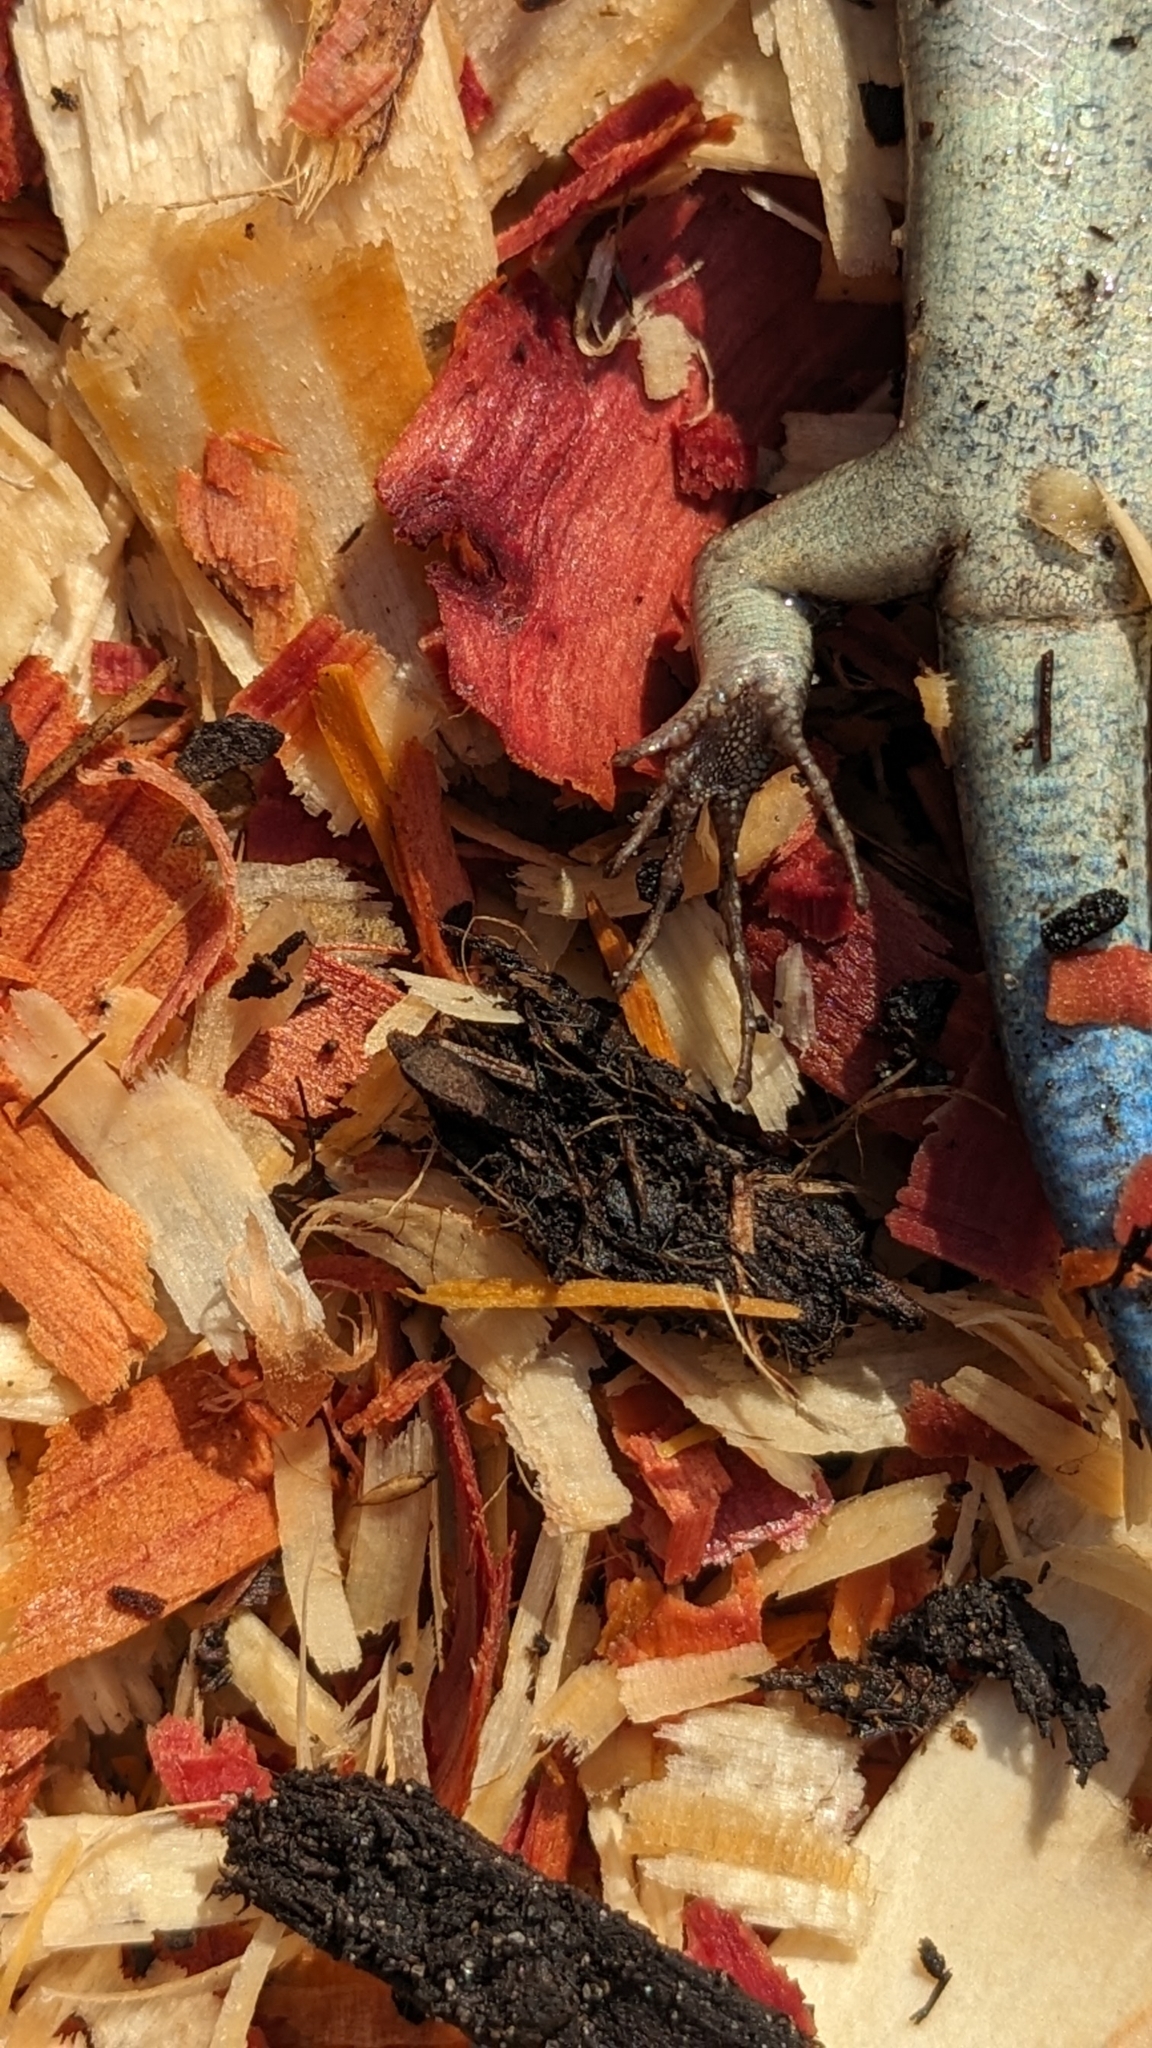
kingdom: Animalia
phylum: Chordata
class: Squamata
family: Scincidae
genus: Plestiodon
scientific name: Plestiodon laticeps
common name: Broadhead skink
